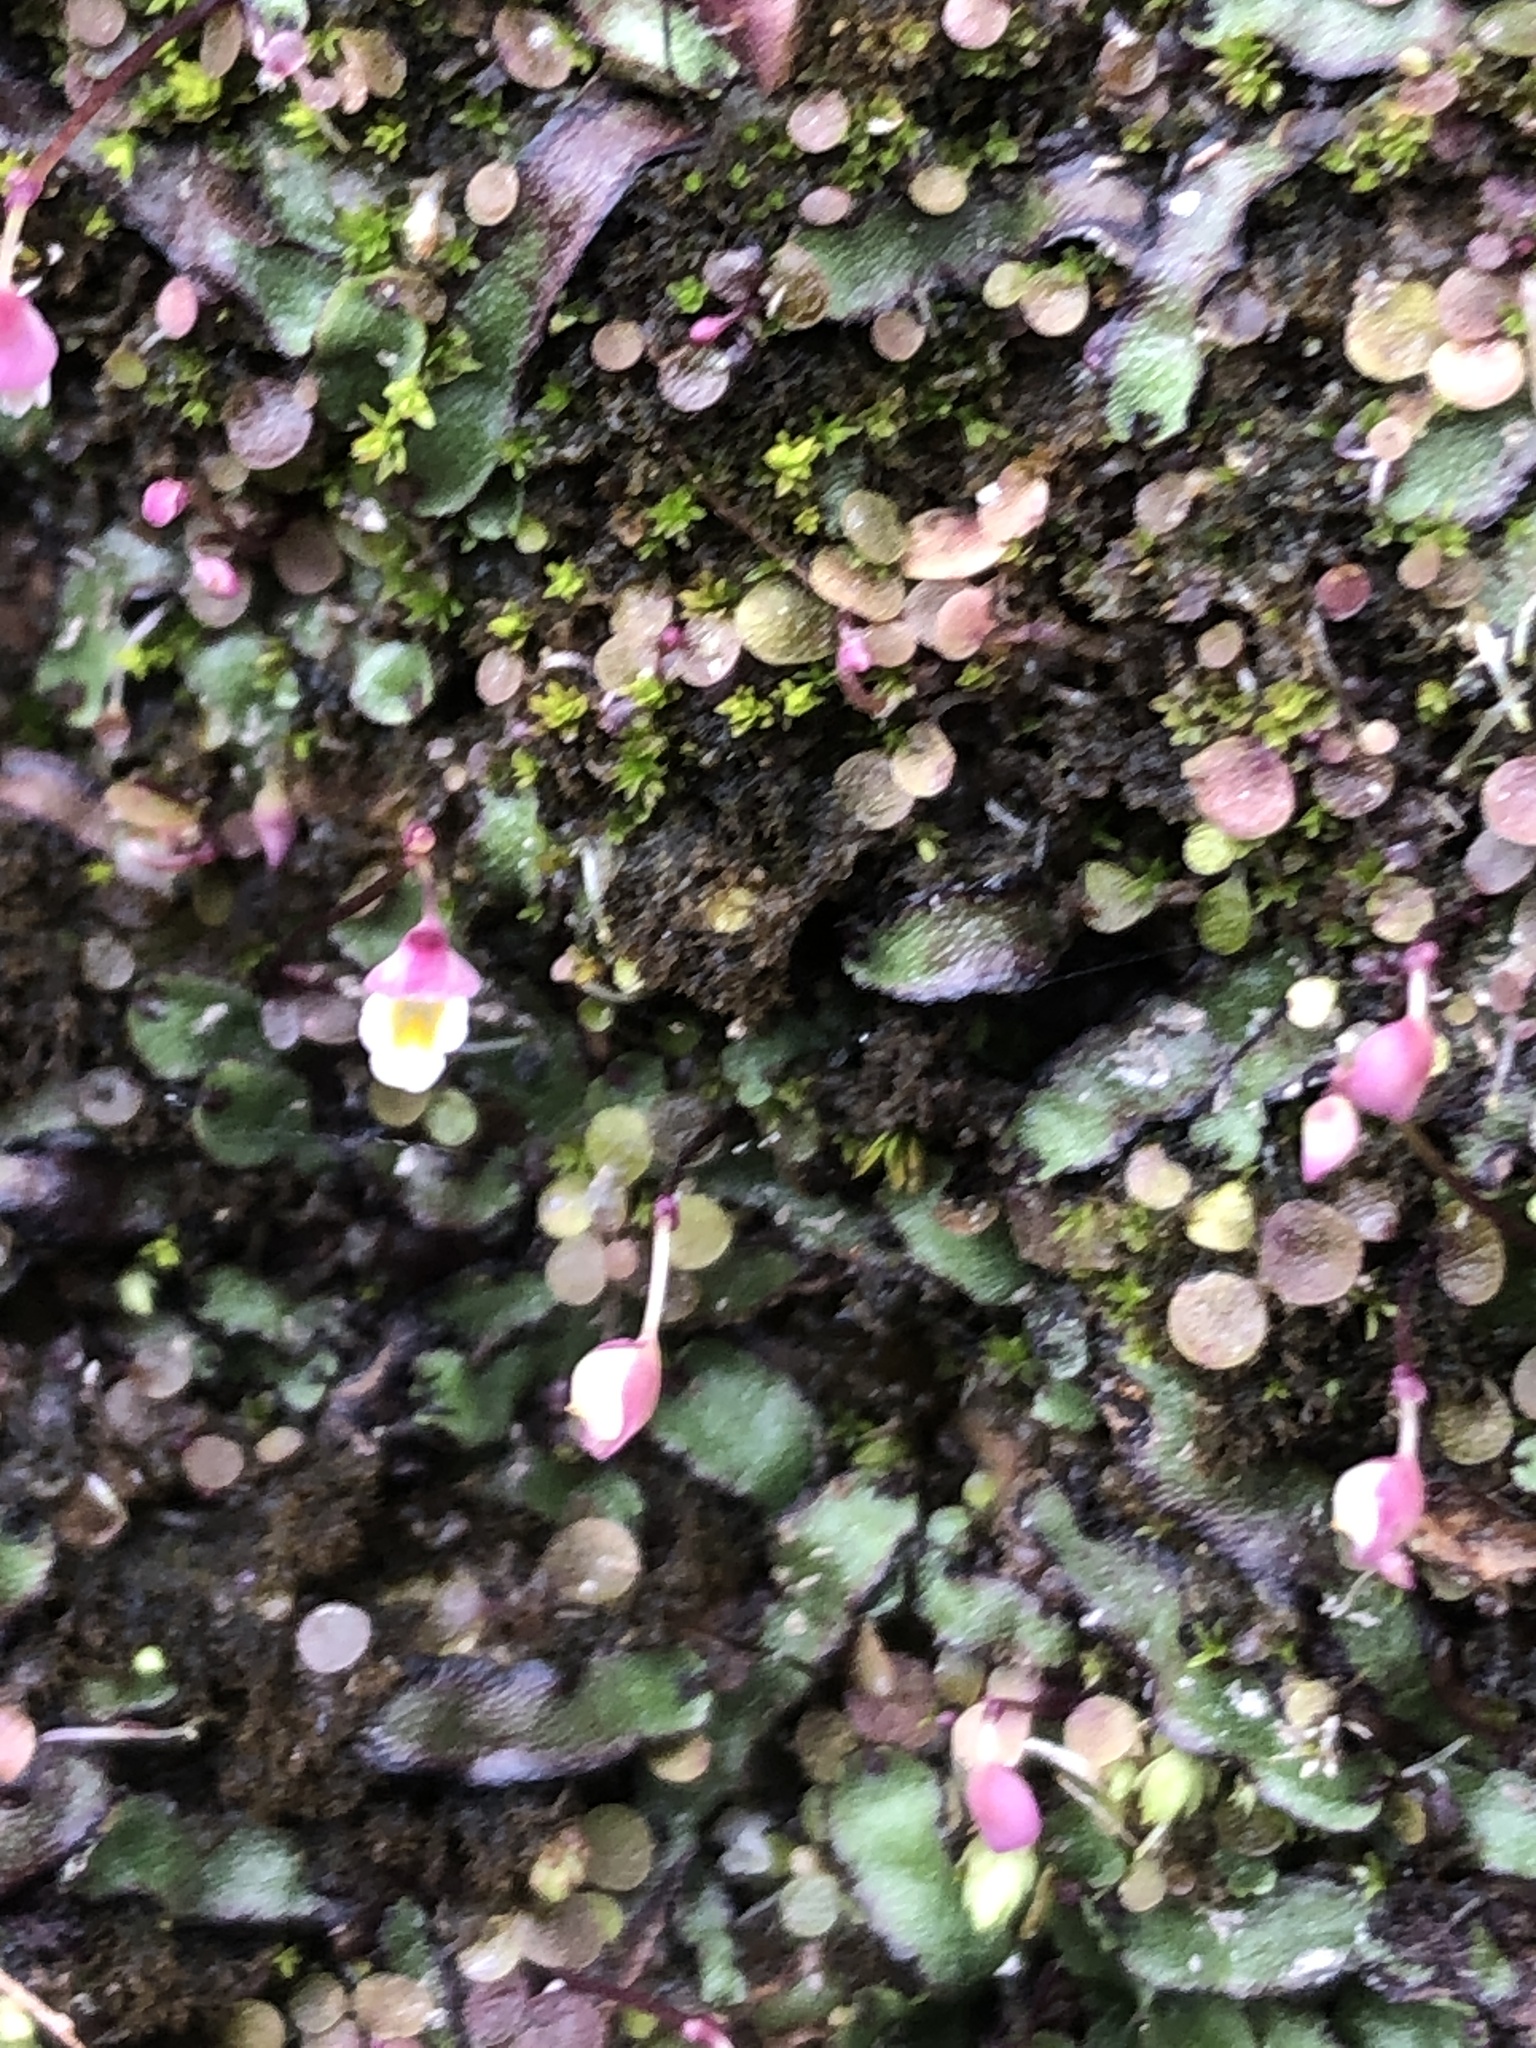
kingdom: Plantae
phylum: Tracheophyta
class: Magnoliopsida
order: Lamiales
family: Lentibulariaceae
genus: Utricularia
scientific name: Utricularia striatula
